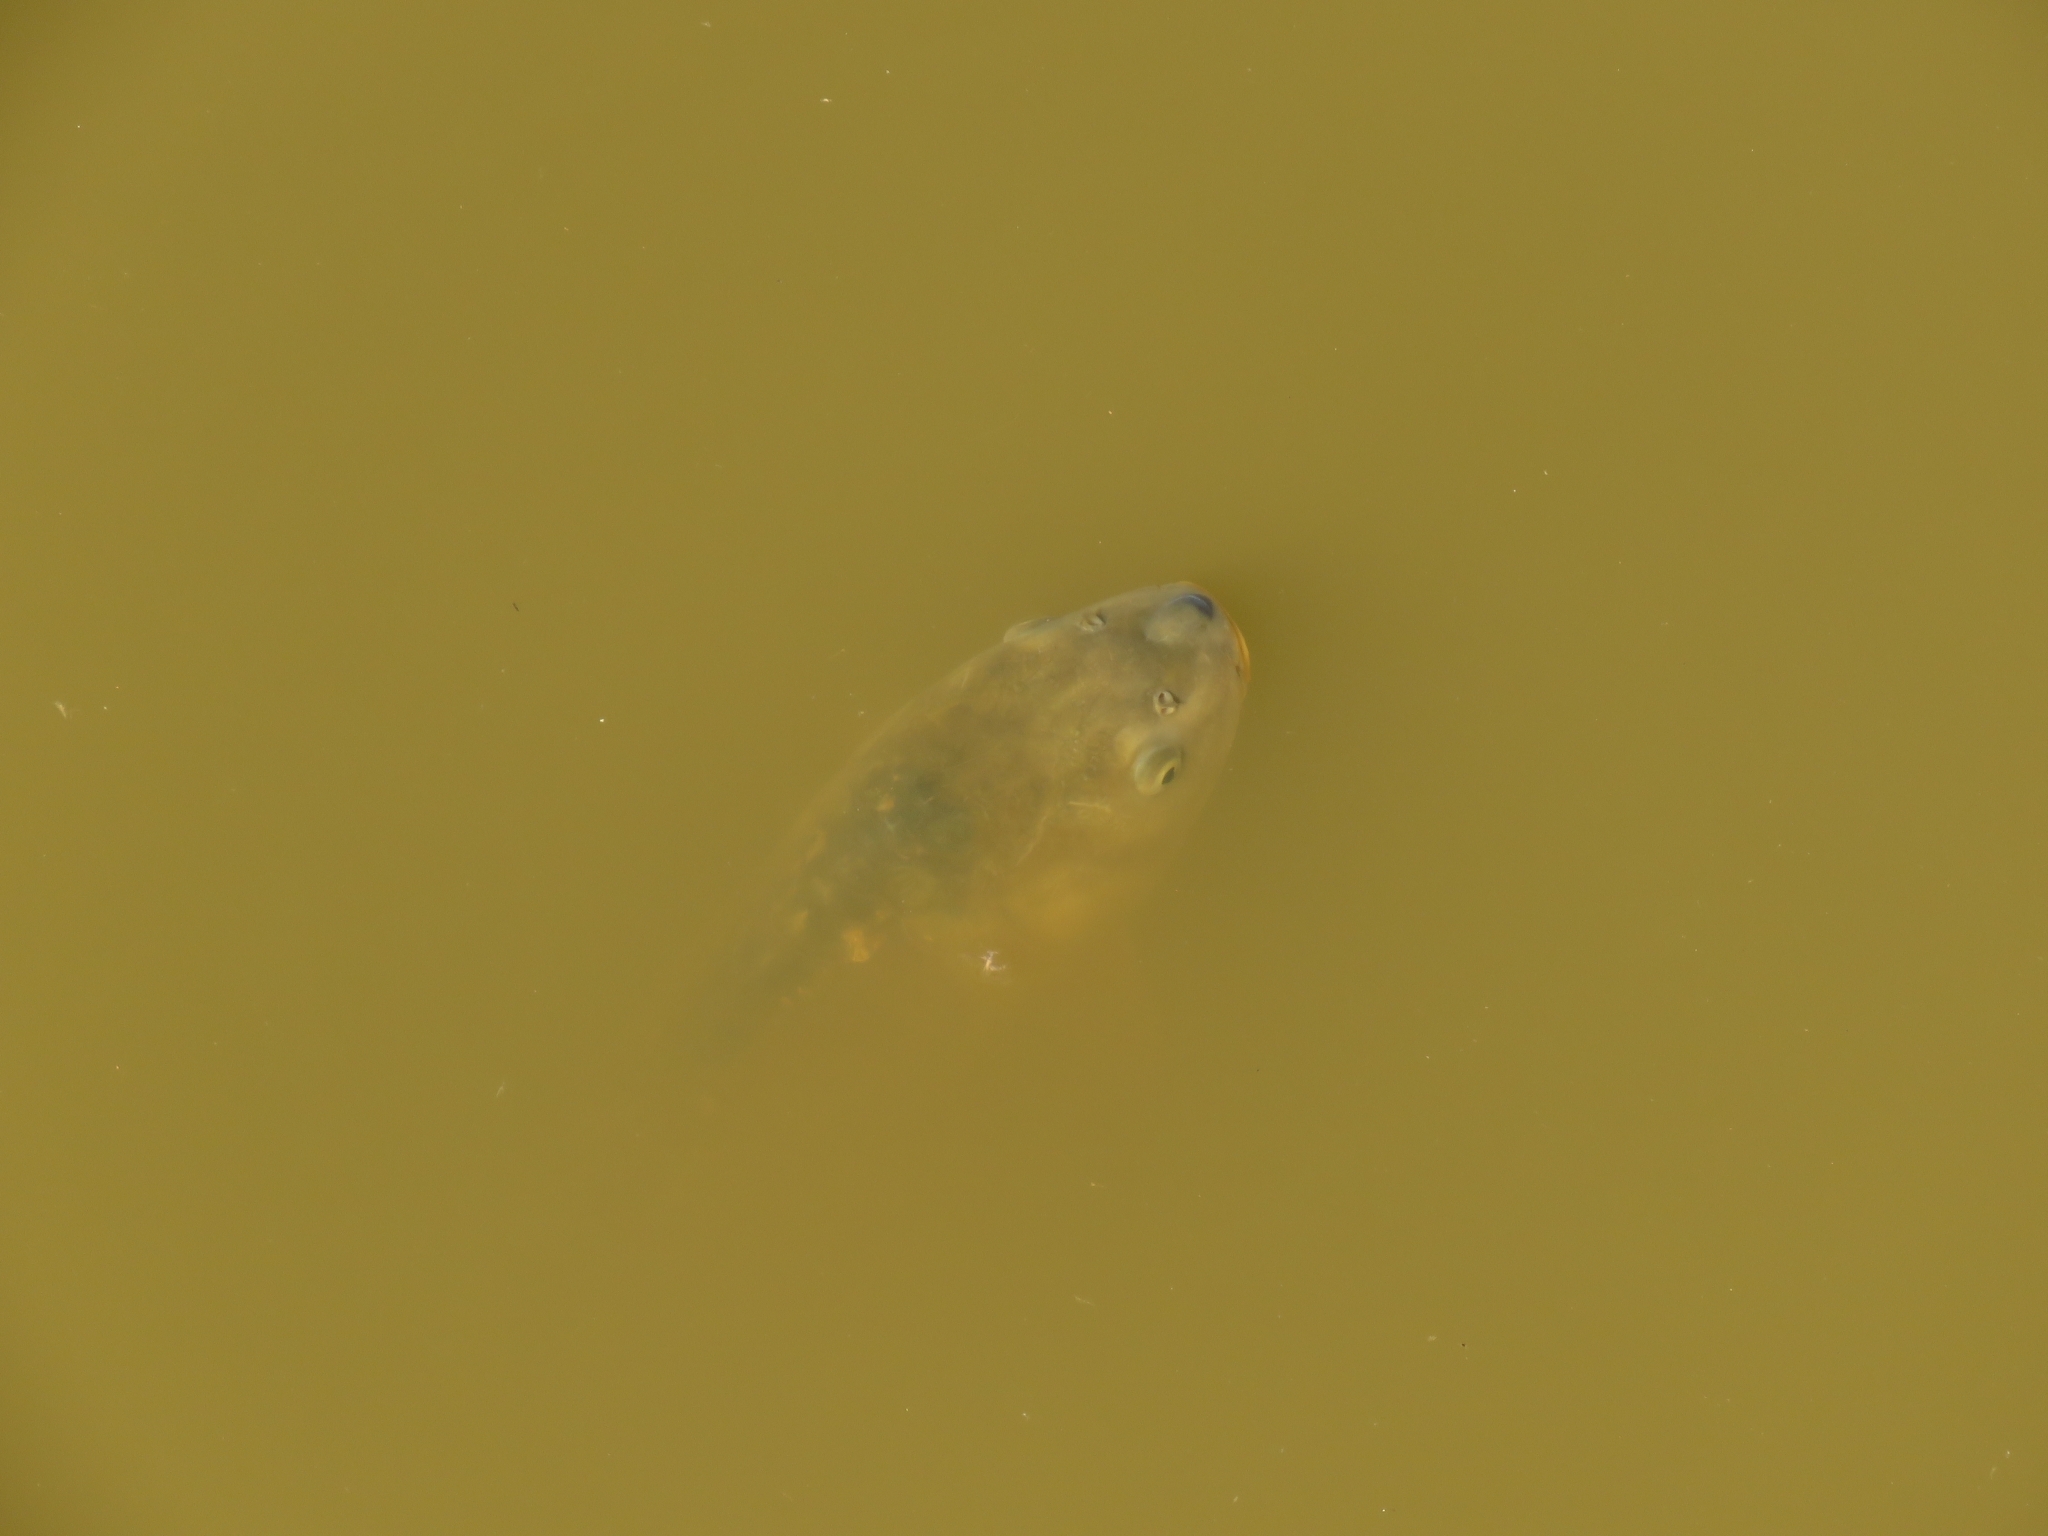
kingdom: Animalia
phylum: Chordata
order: Cypriniformes
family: Cyprinidae
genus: Cyprinus
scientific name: Cyprinus carpio
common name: Common carp
